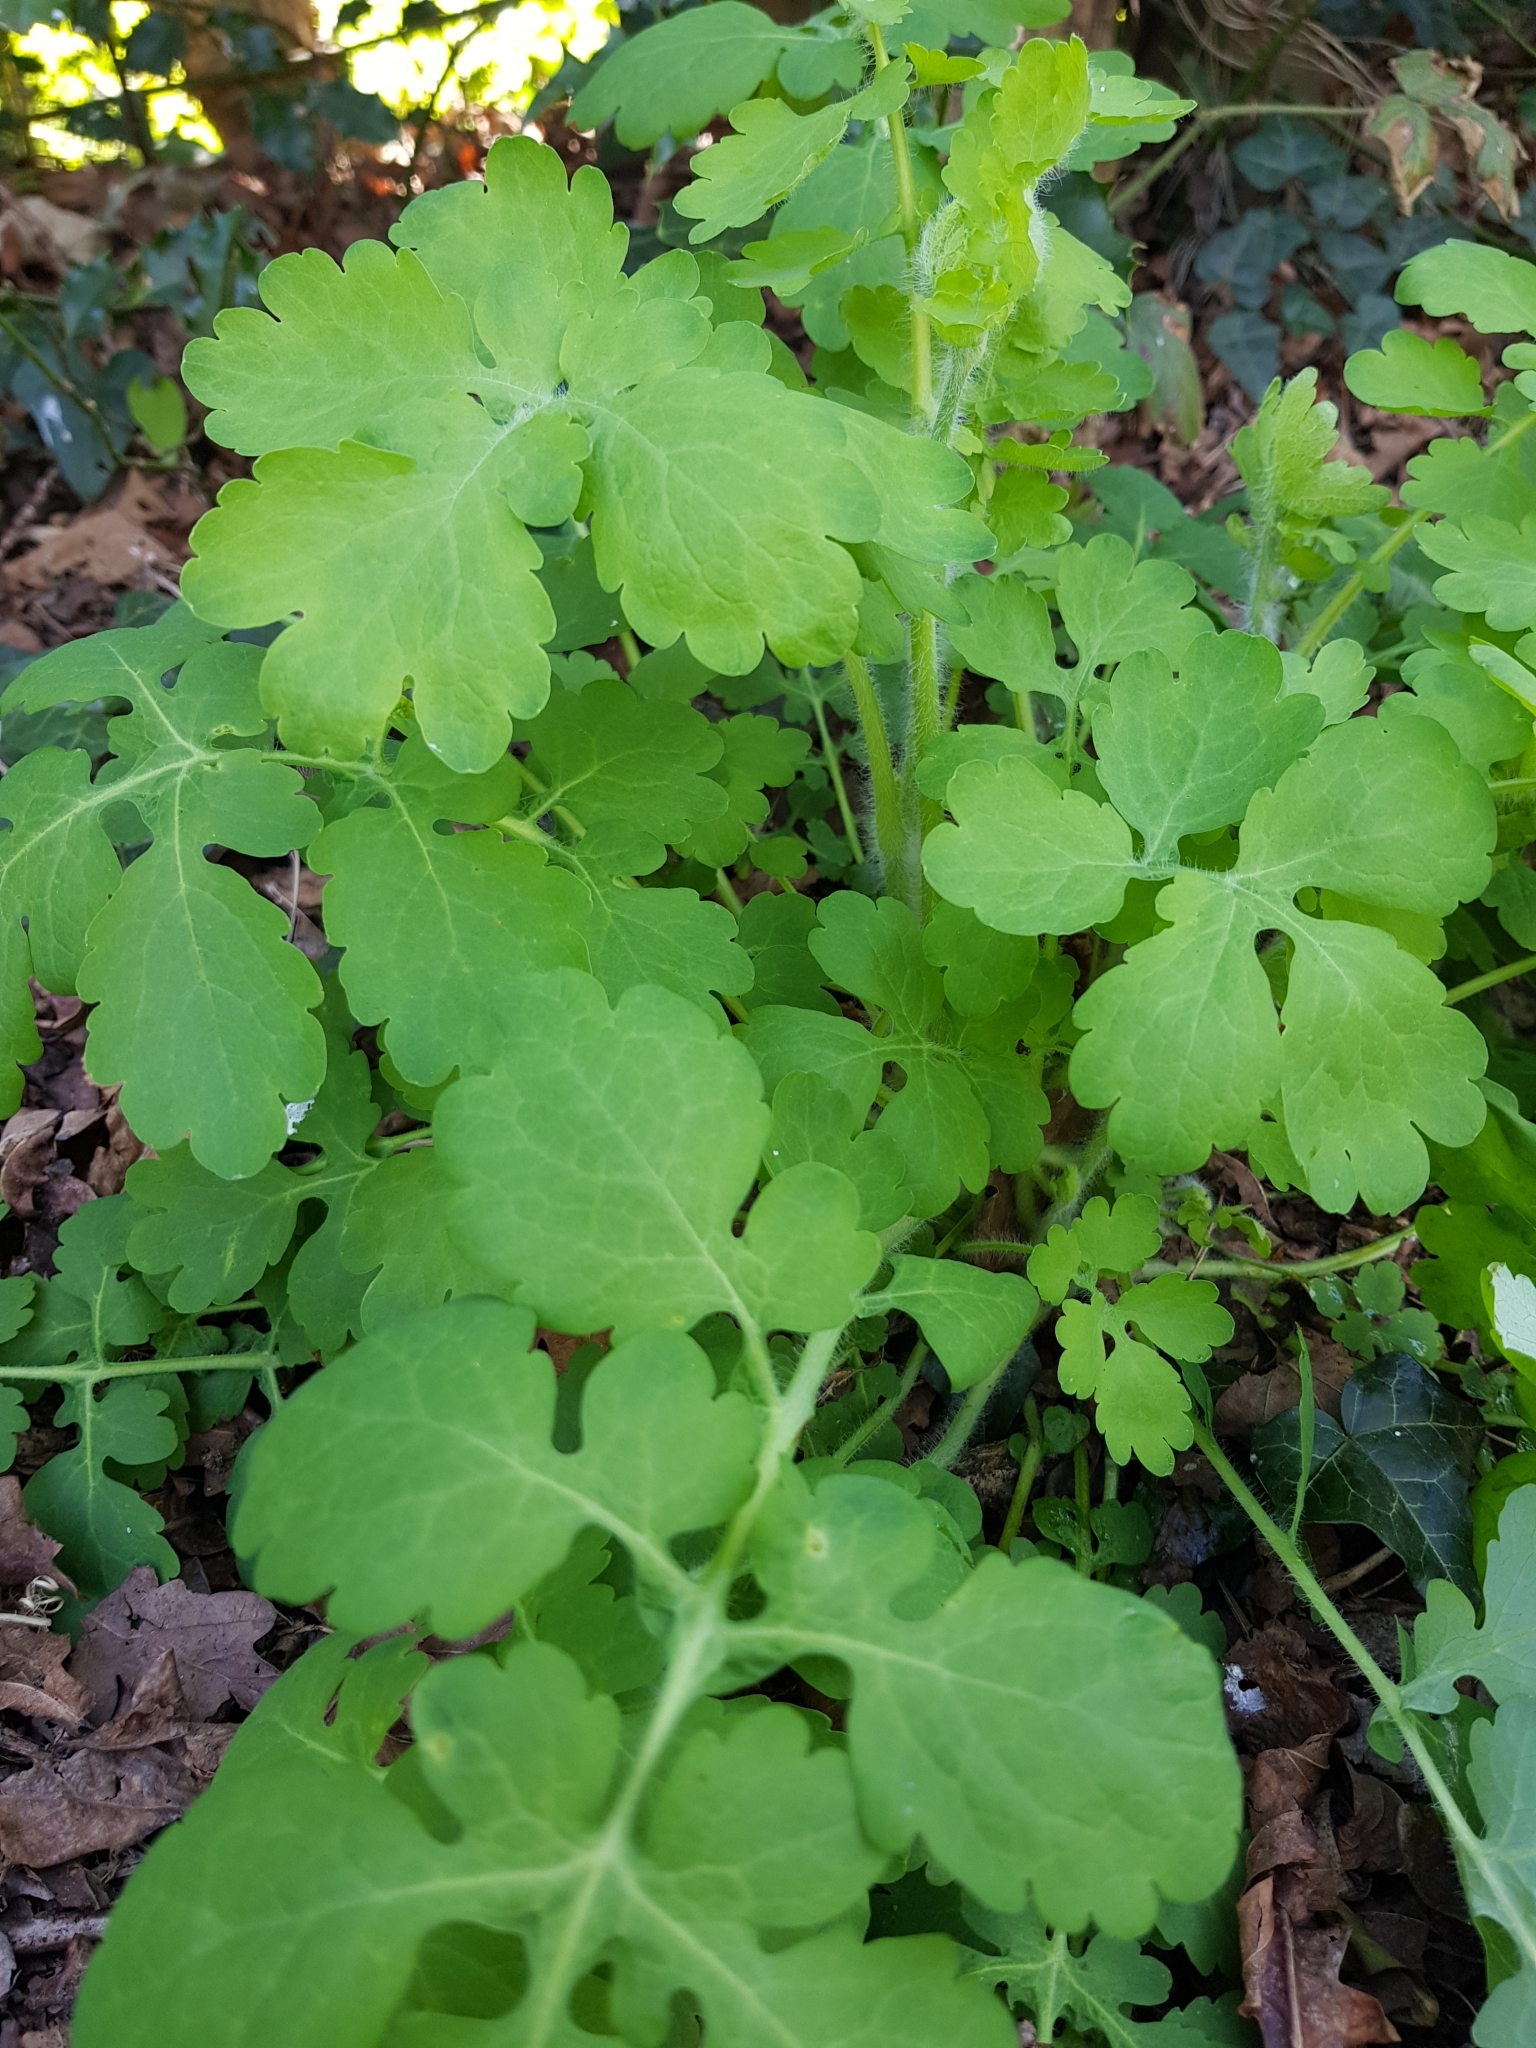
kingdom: Plantae
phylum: Tracheophyta
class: Magnoliopsida
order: Ranunculales
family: Papaveraceae
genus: Chelidonium
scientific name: Chelidonium majus
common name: Greater celandine
